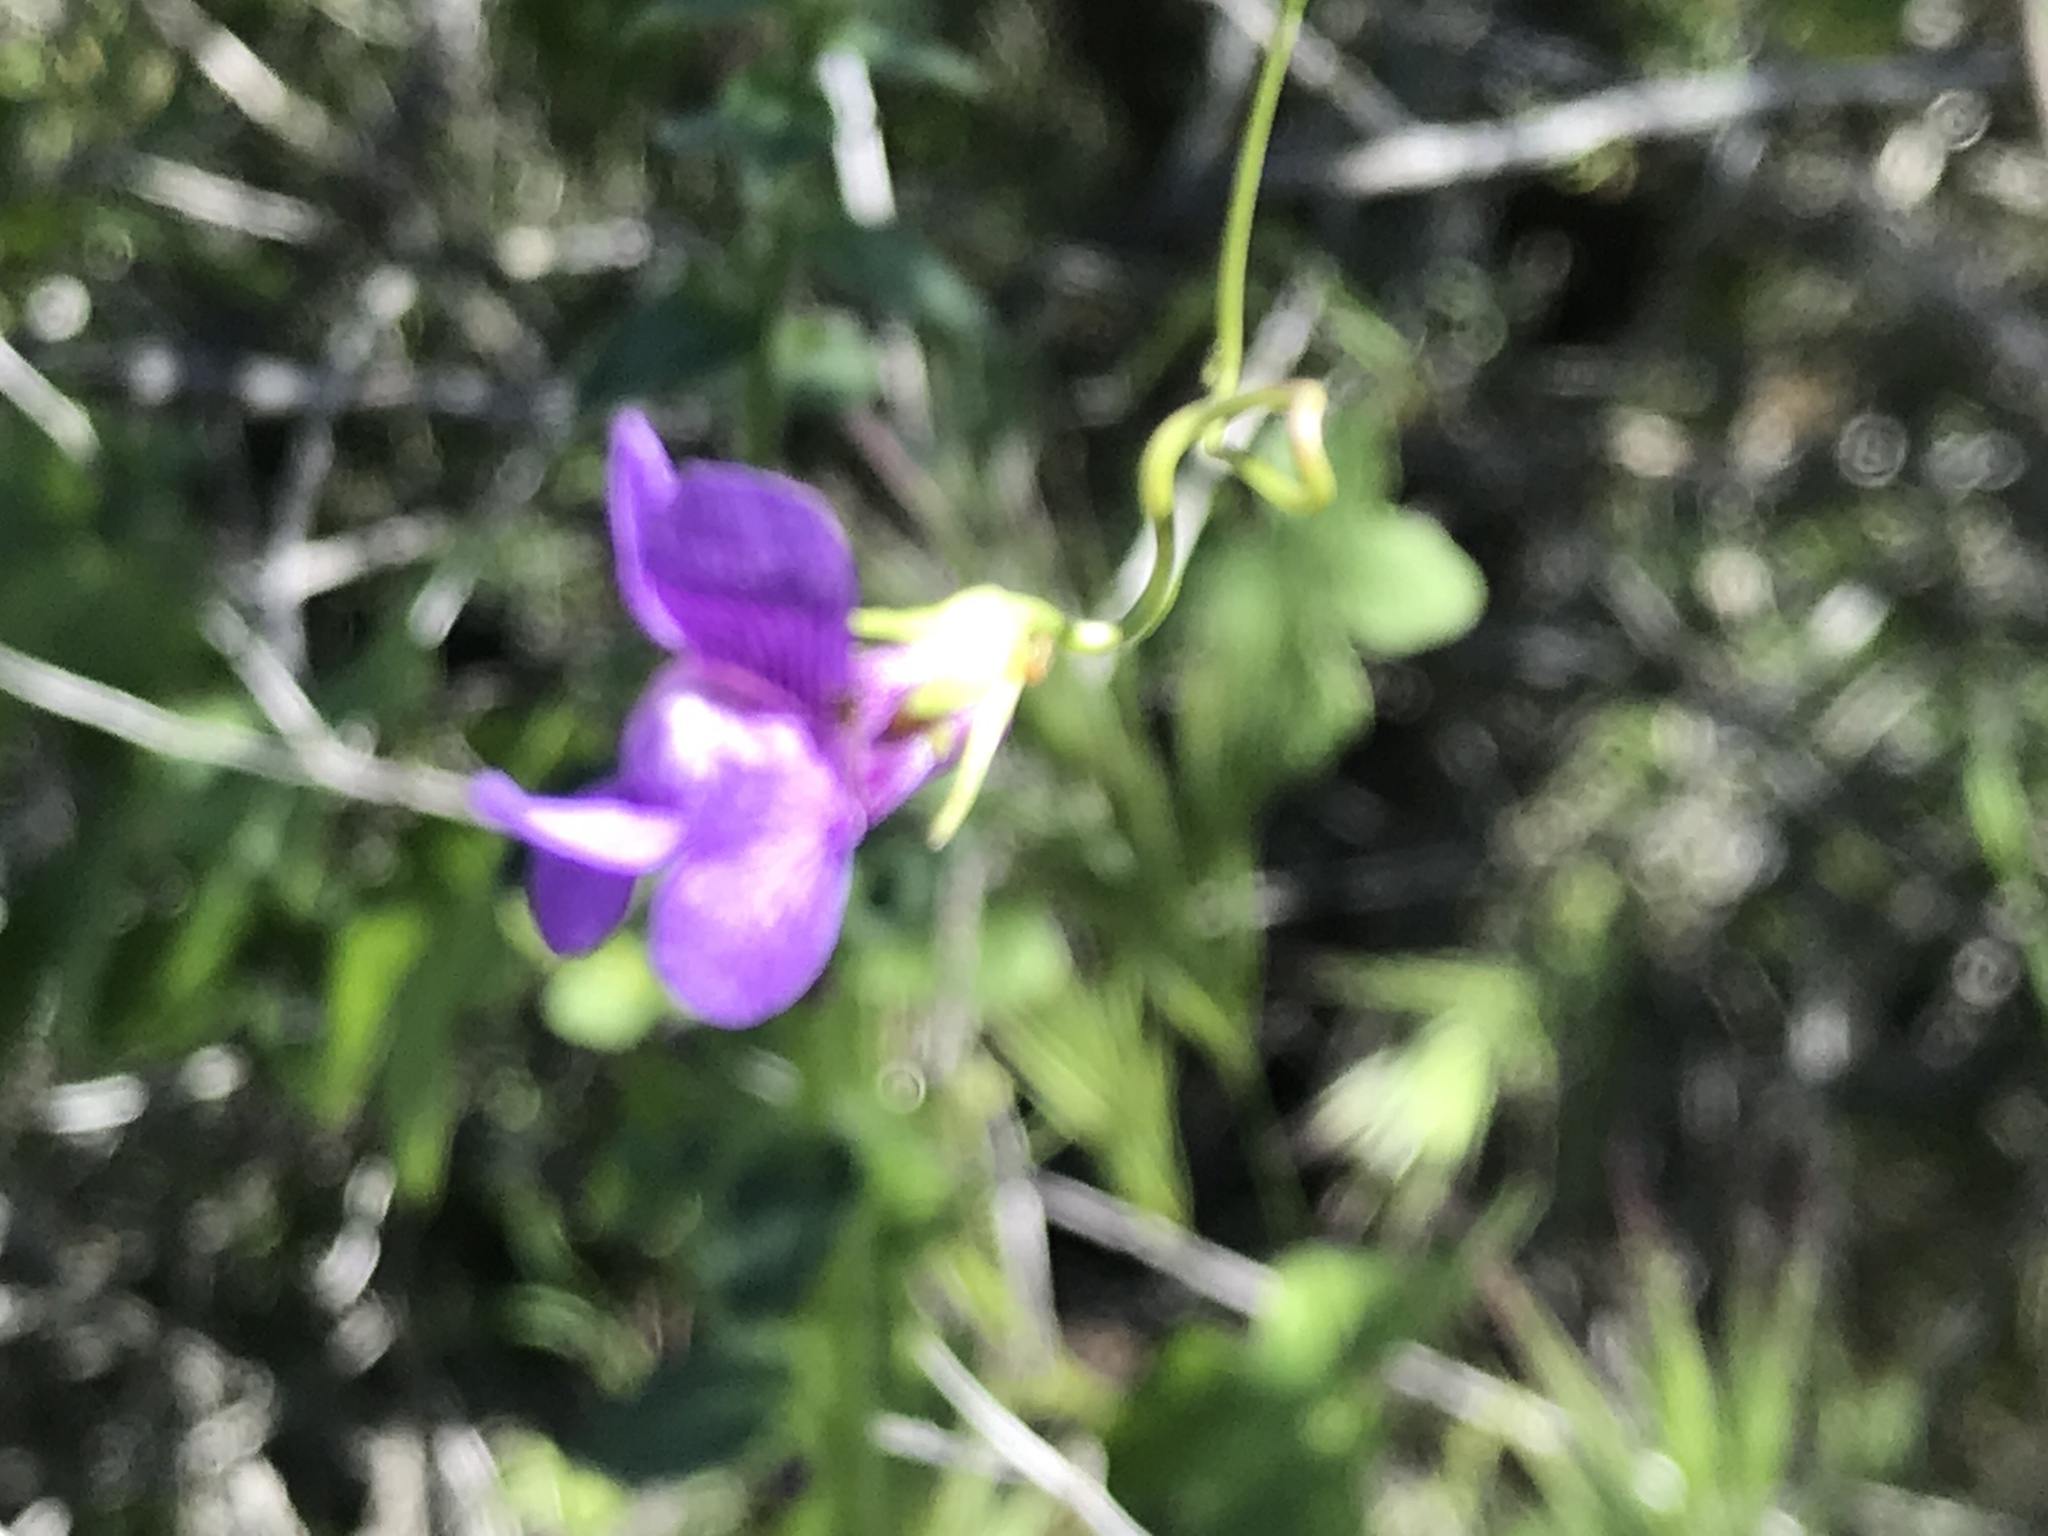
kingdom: Plantae
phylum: Tracheophyta
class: Magnoliopsida
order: Lamiales
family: Plantaginaceae
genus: Neogaerrhinum
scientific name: Neogaerrhinum strictum
